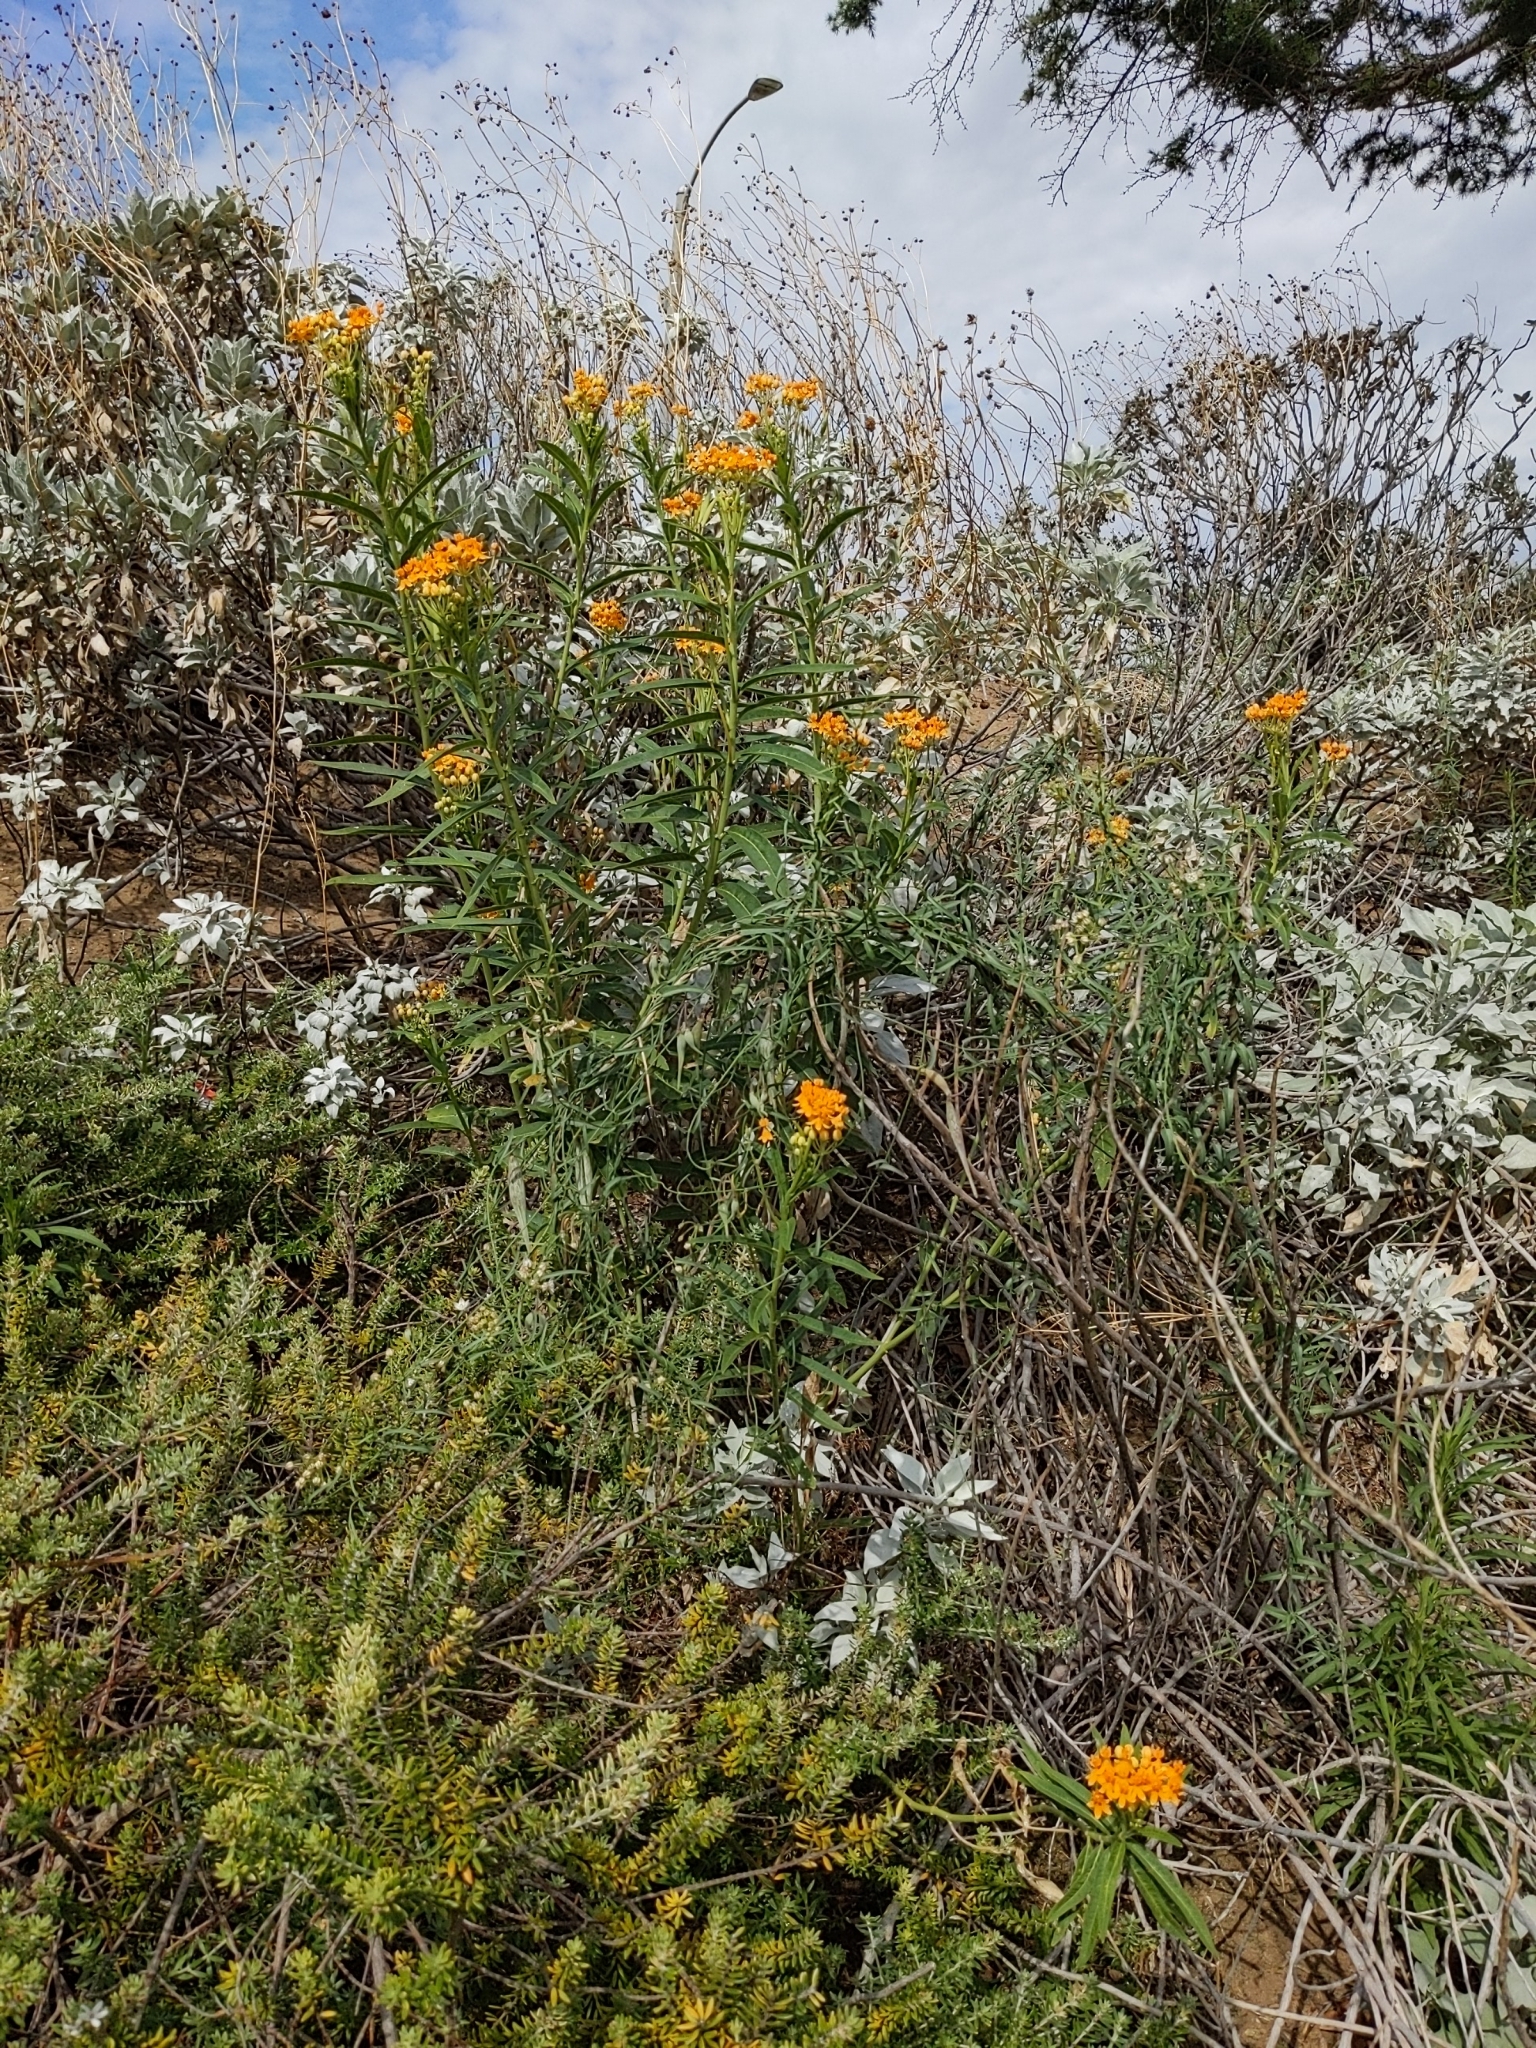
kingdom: Plantae
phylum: Tracheophyta
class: Magnoliopsida
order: Gentianales
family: Apocynaceae
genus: Asclepias
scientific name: Asclepias curassavica
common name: Bloodflower
